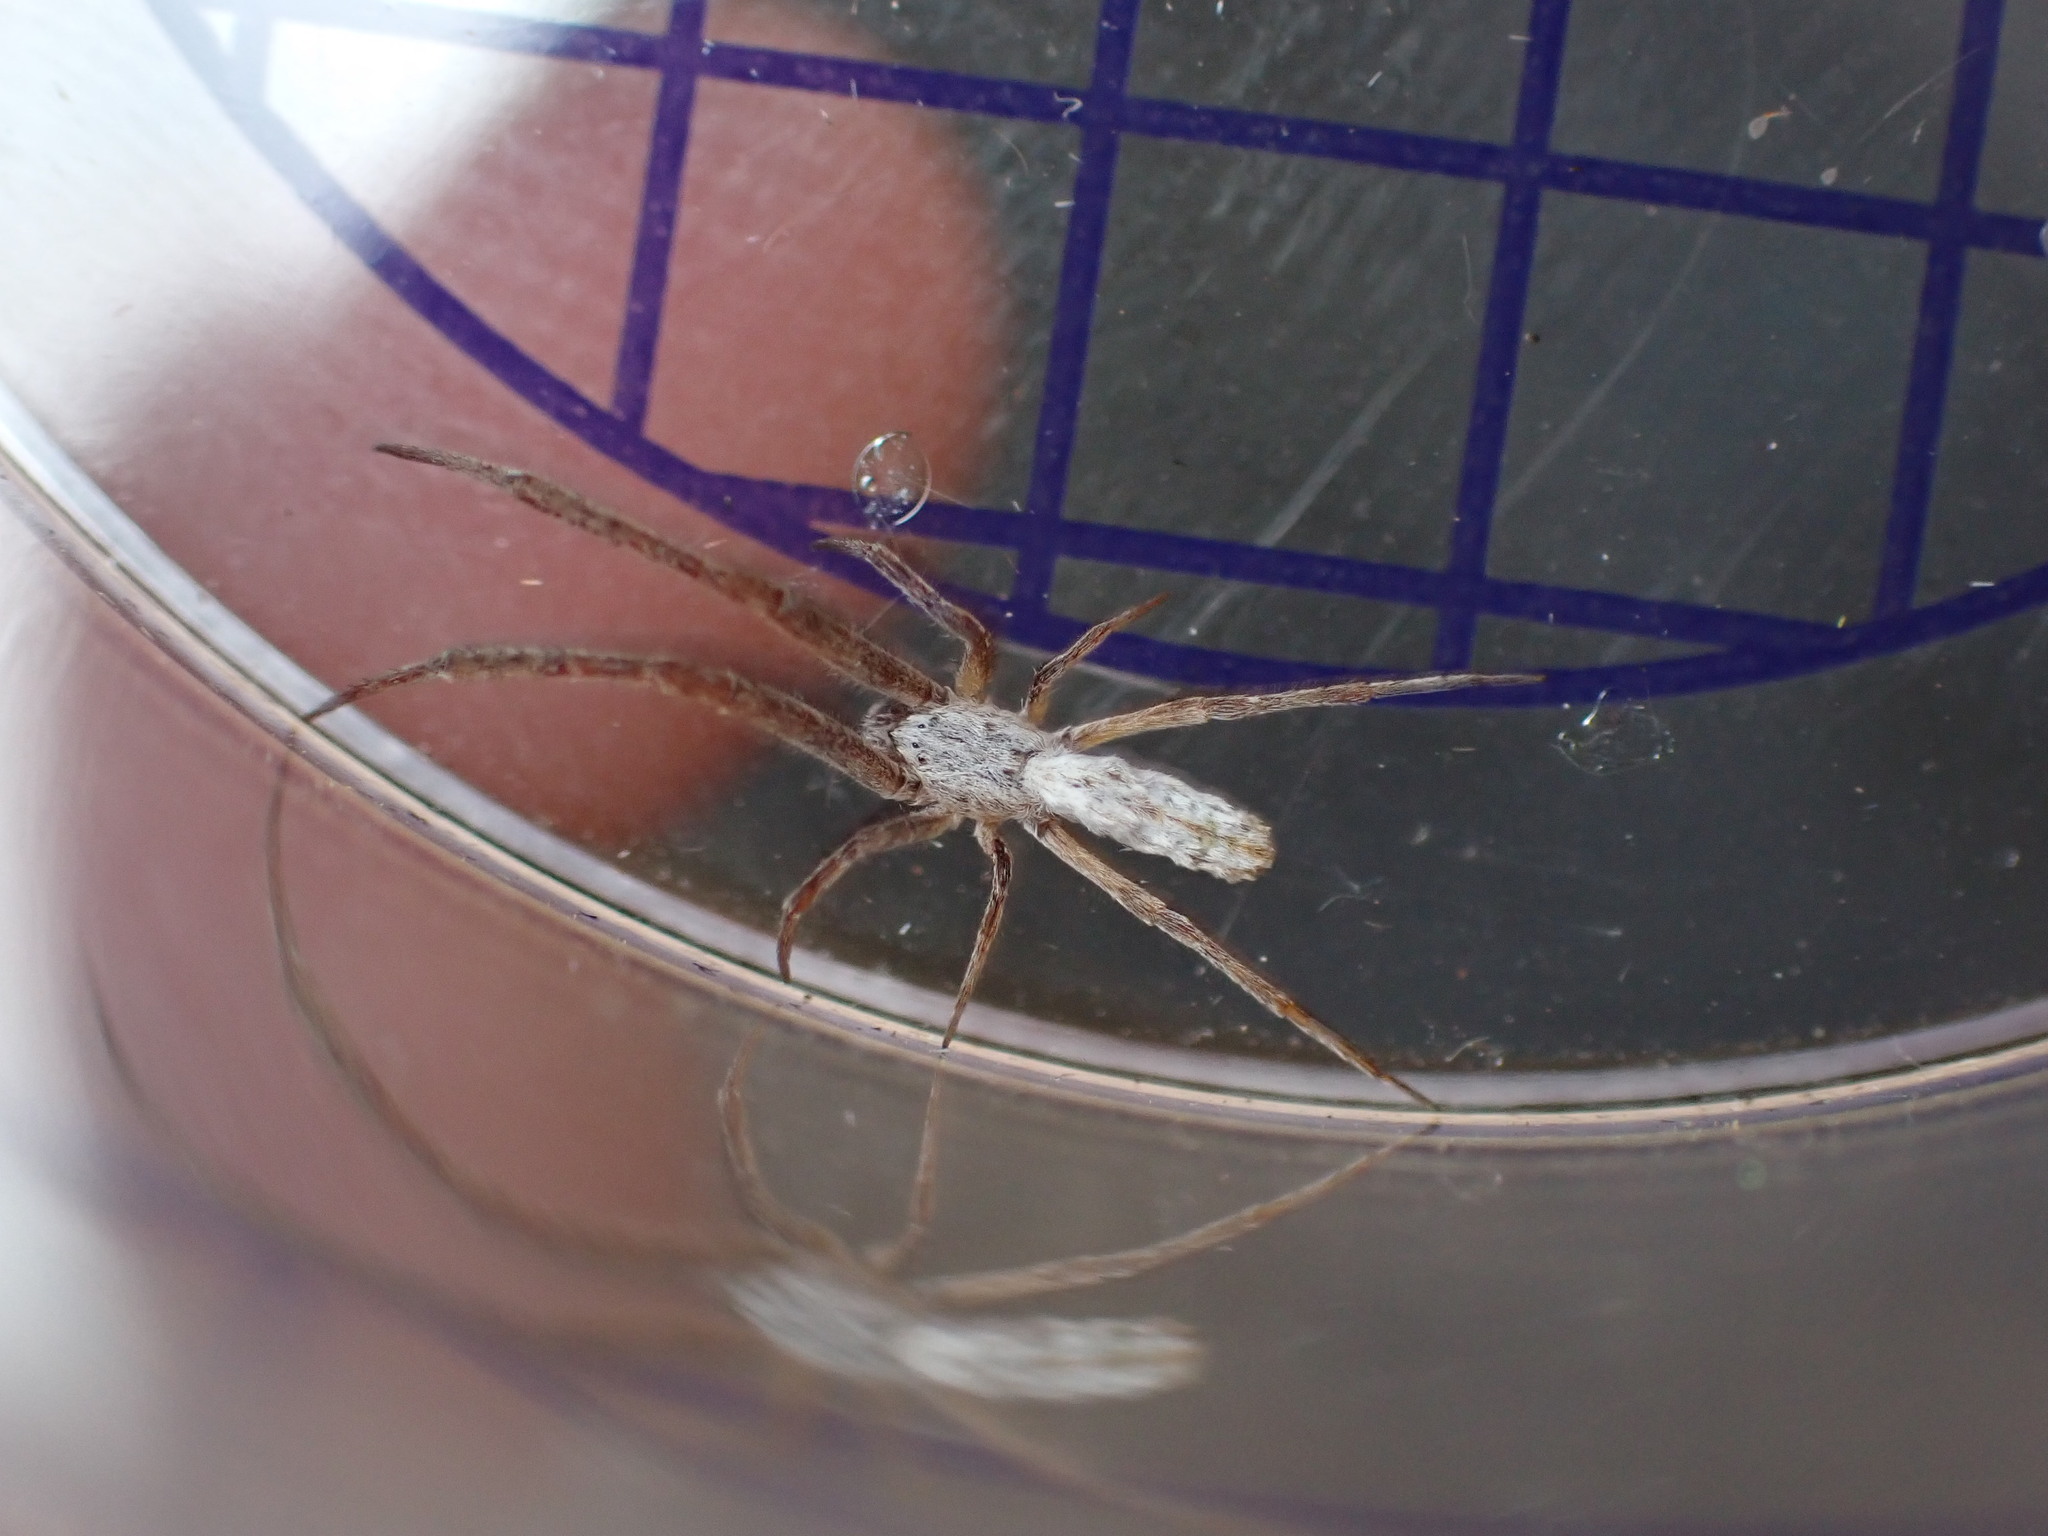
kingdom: Animalia
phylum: Arthropoda
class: Arachnida
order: Araneae
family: Uloboridae
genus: Uloborus
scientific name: Uloborus walckenaerius
